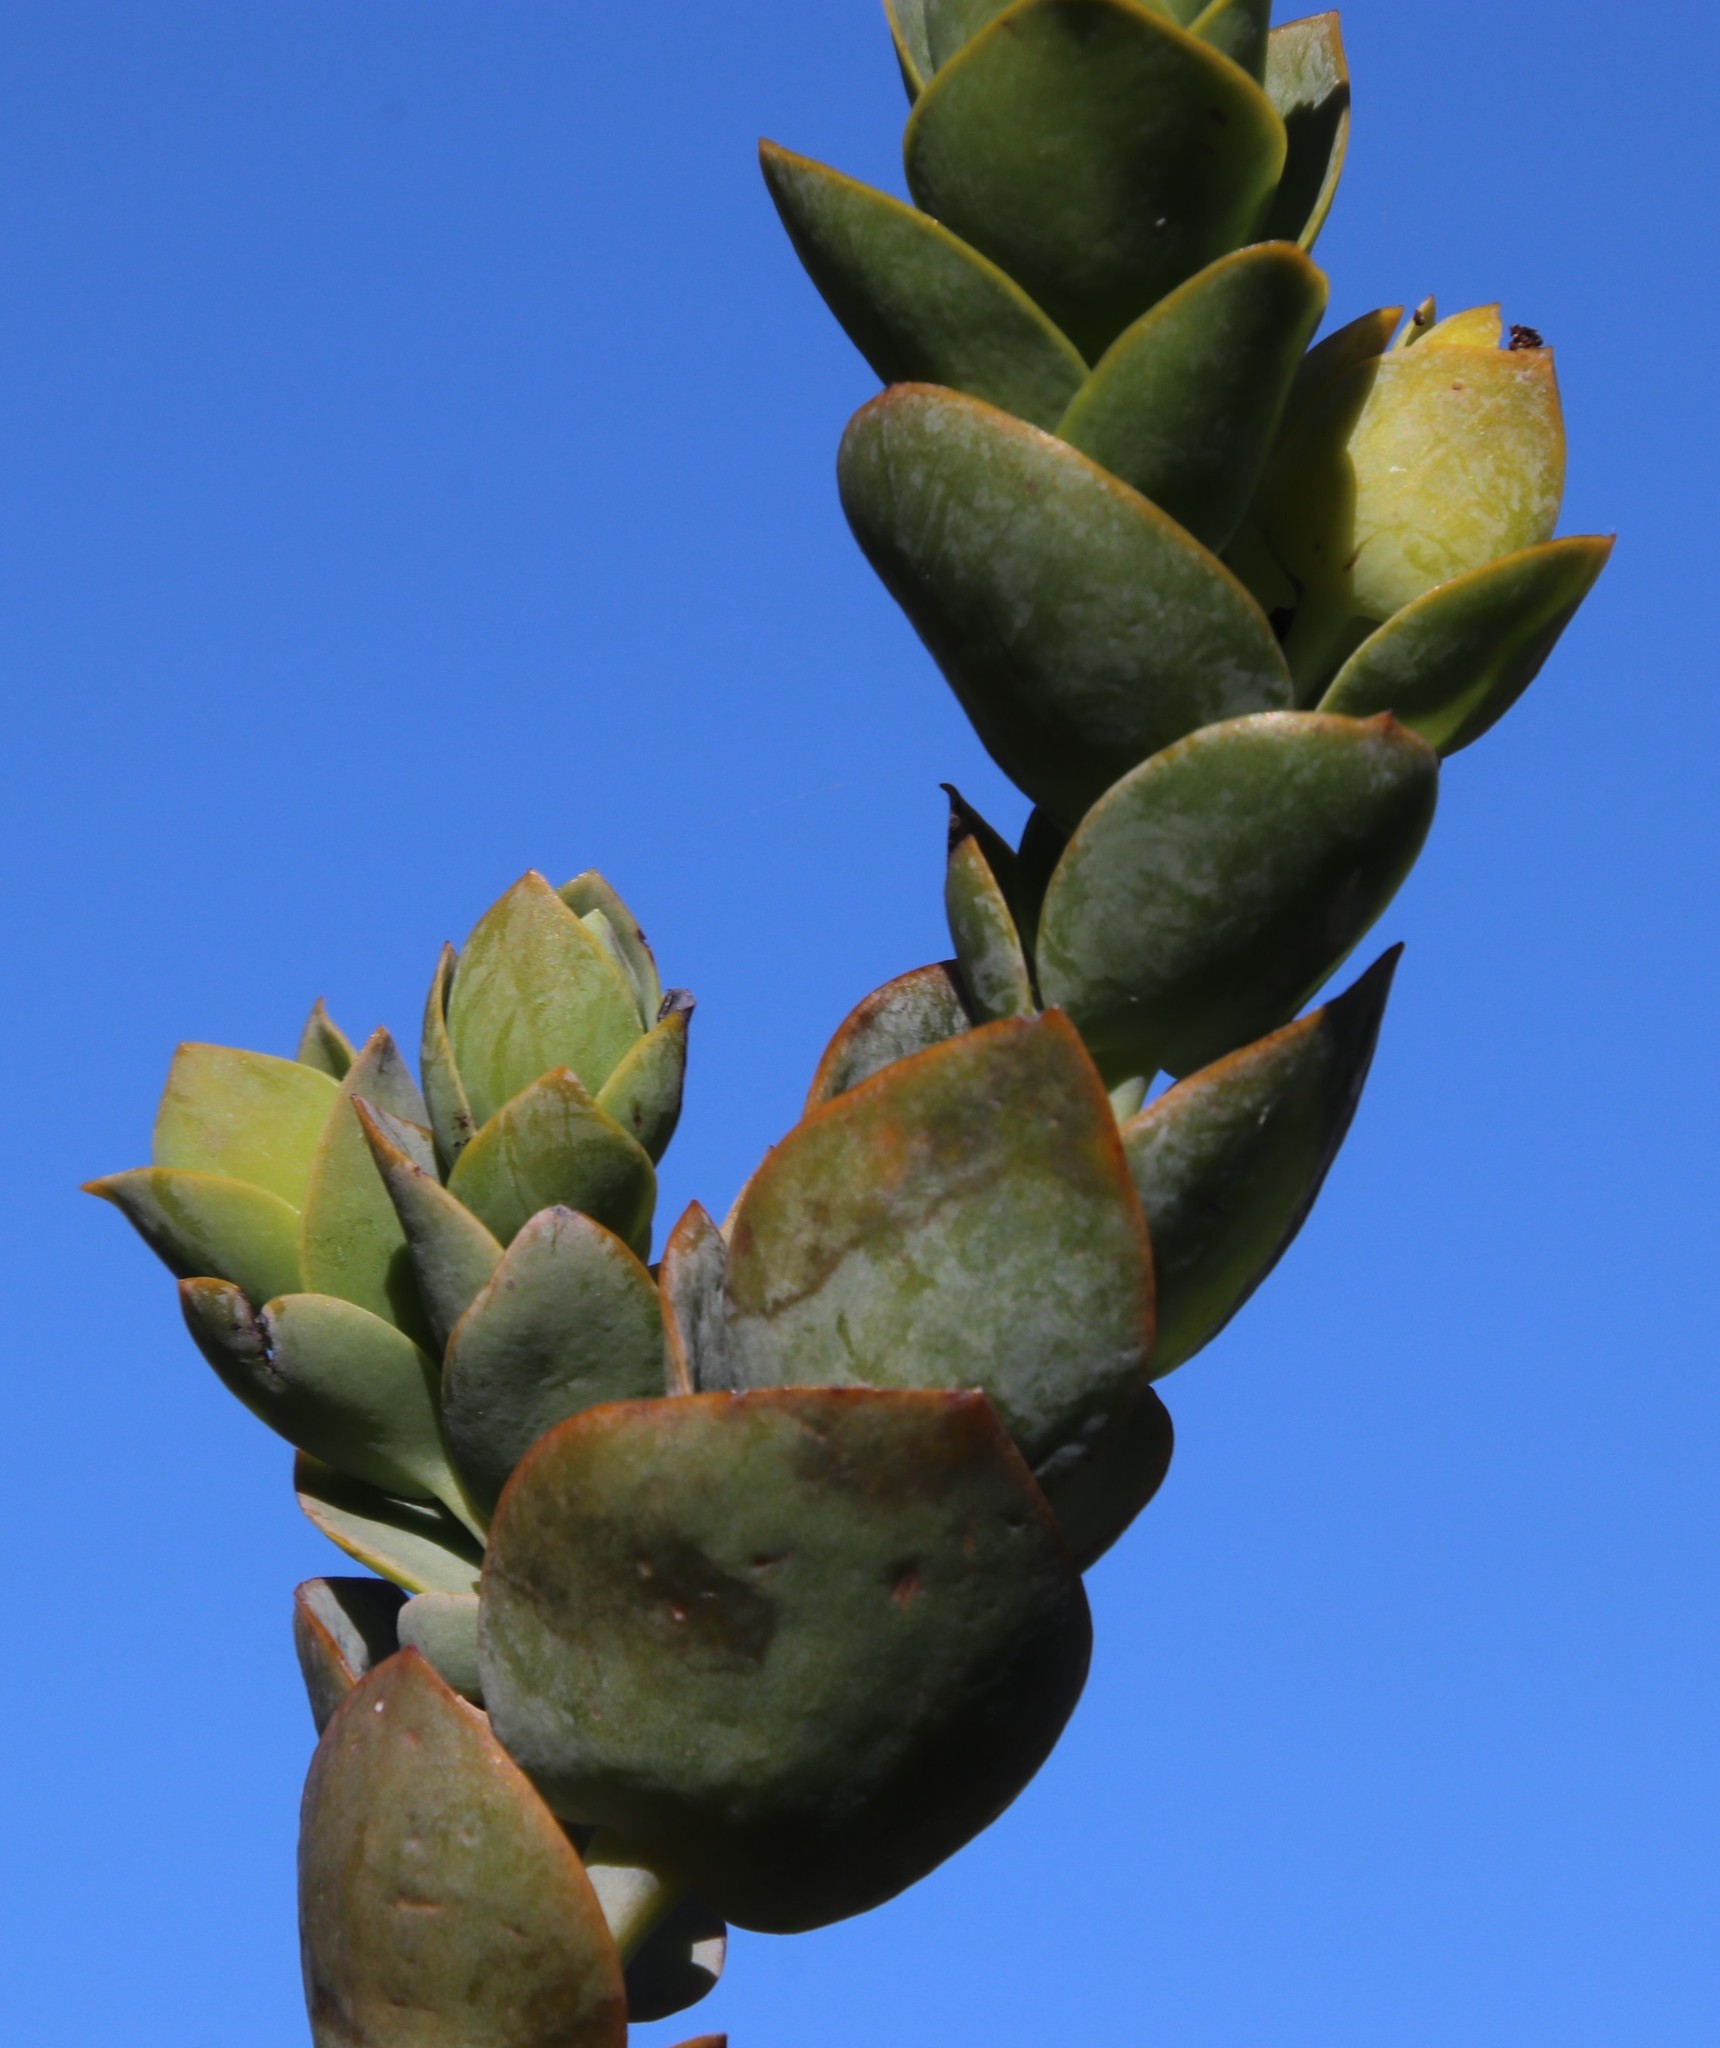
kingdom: Plantae
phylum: Tracheophyta
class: Magnoliopsida
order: Santalales
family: Thesiaceae
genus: Thesium
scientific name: Thesium euphorbioides
